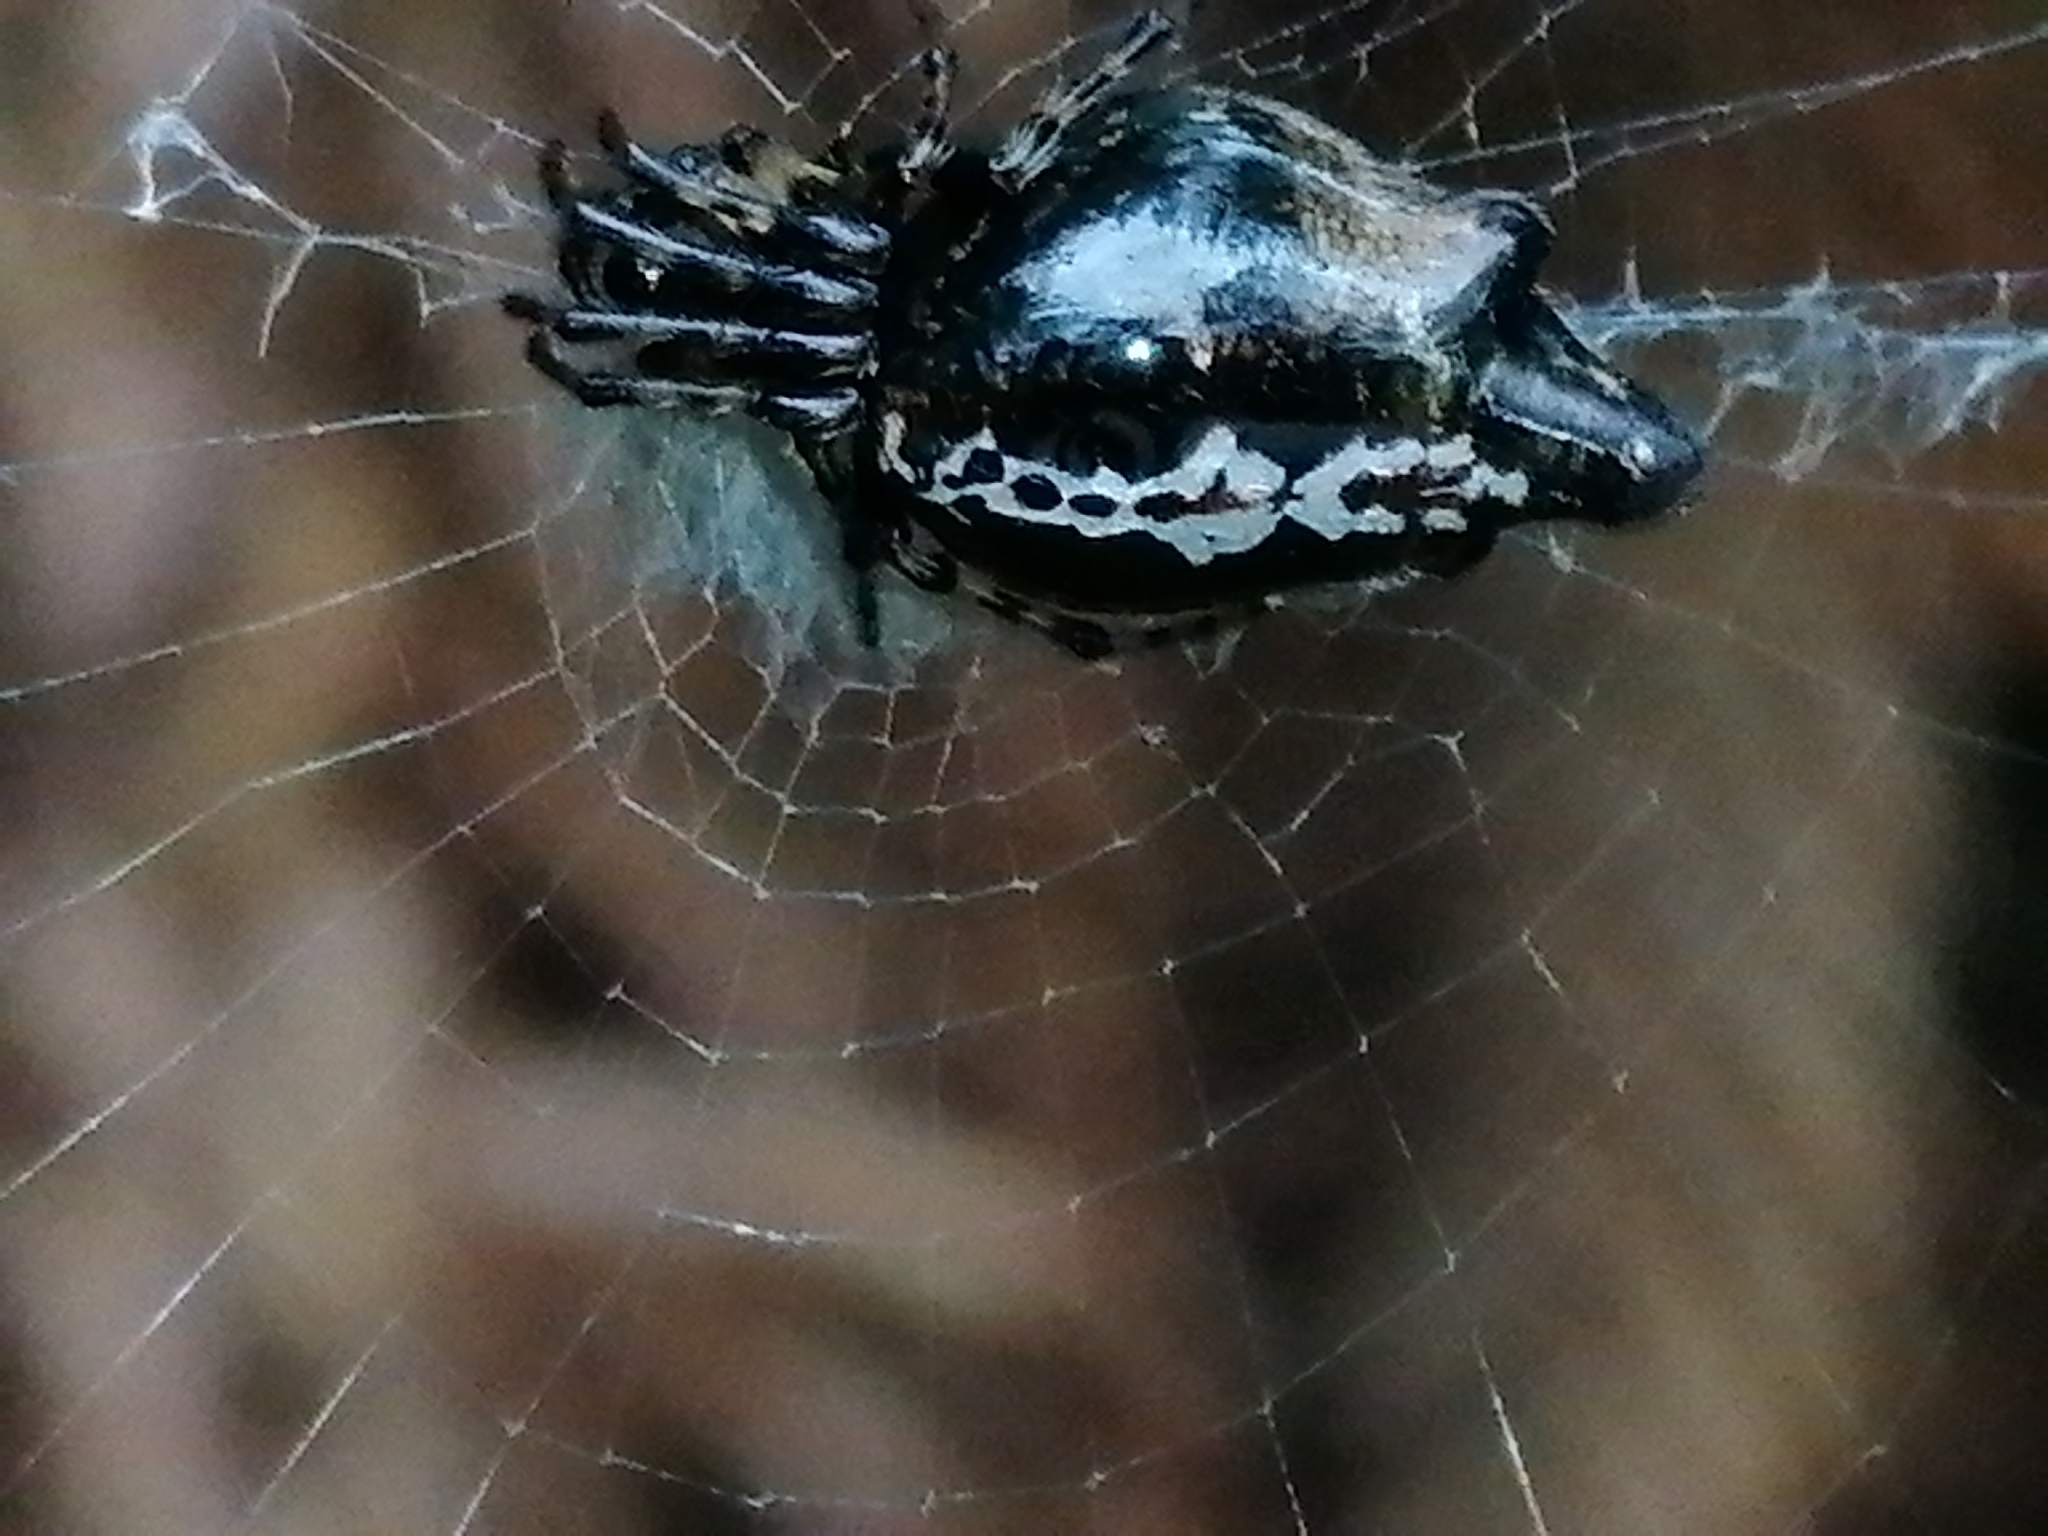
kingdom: Animalia
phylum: Arthropoda
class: Arachnida
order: Araneae
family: Araneidae
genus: Cyclosa
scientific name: Cyclosa trilobata
